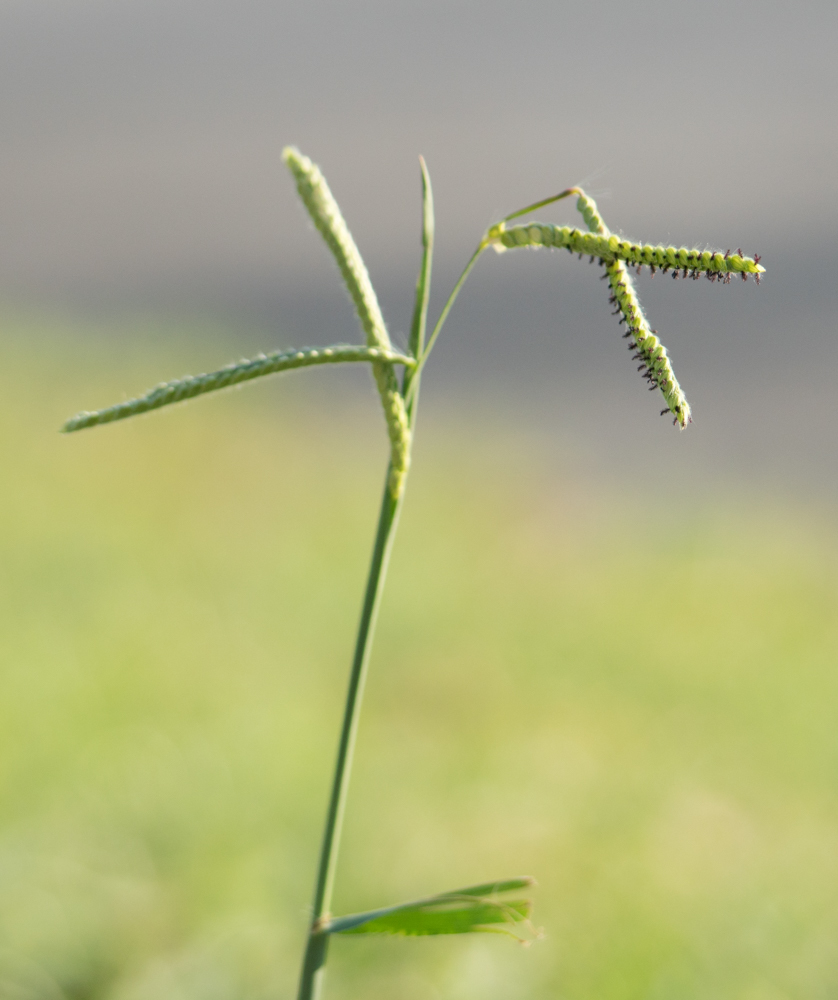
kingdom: Plantae
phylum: Tracheophyta
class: Liliopsida
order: Poales
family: Poaceae
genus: Paspalum
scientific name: Paspalum dilatatum
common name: Dallisgrass
